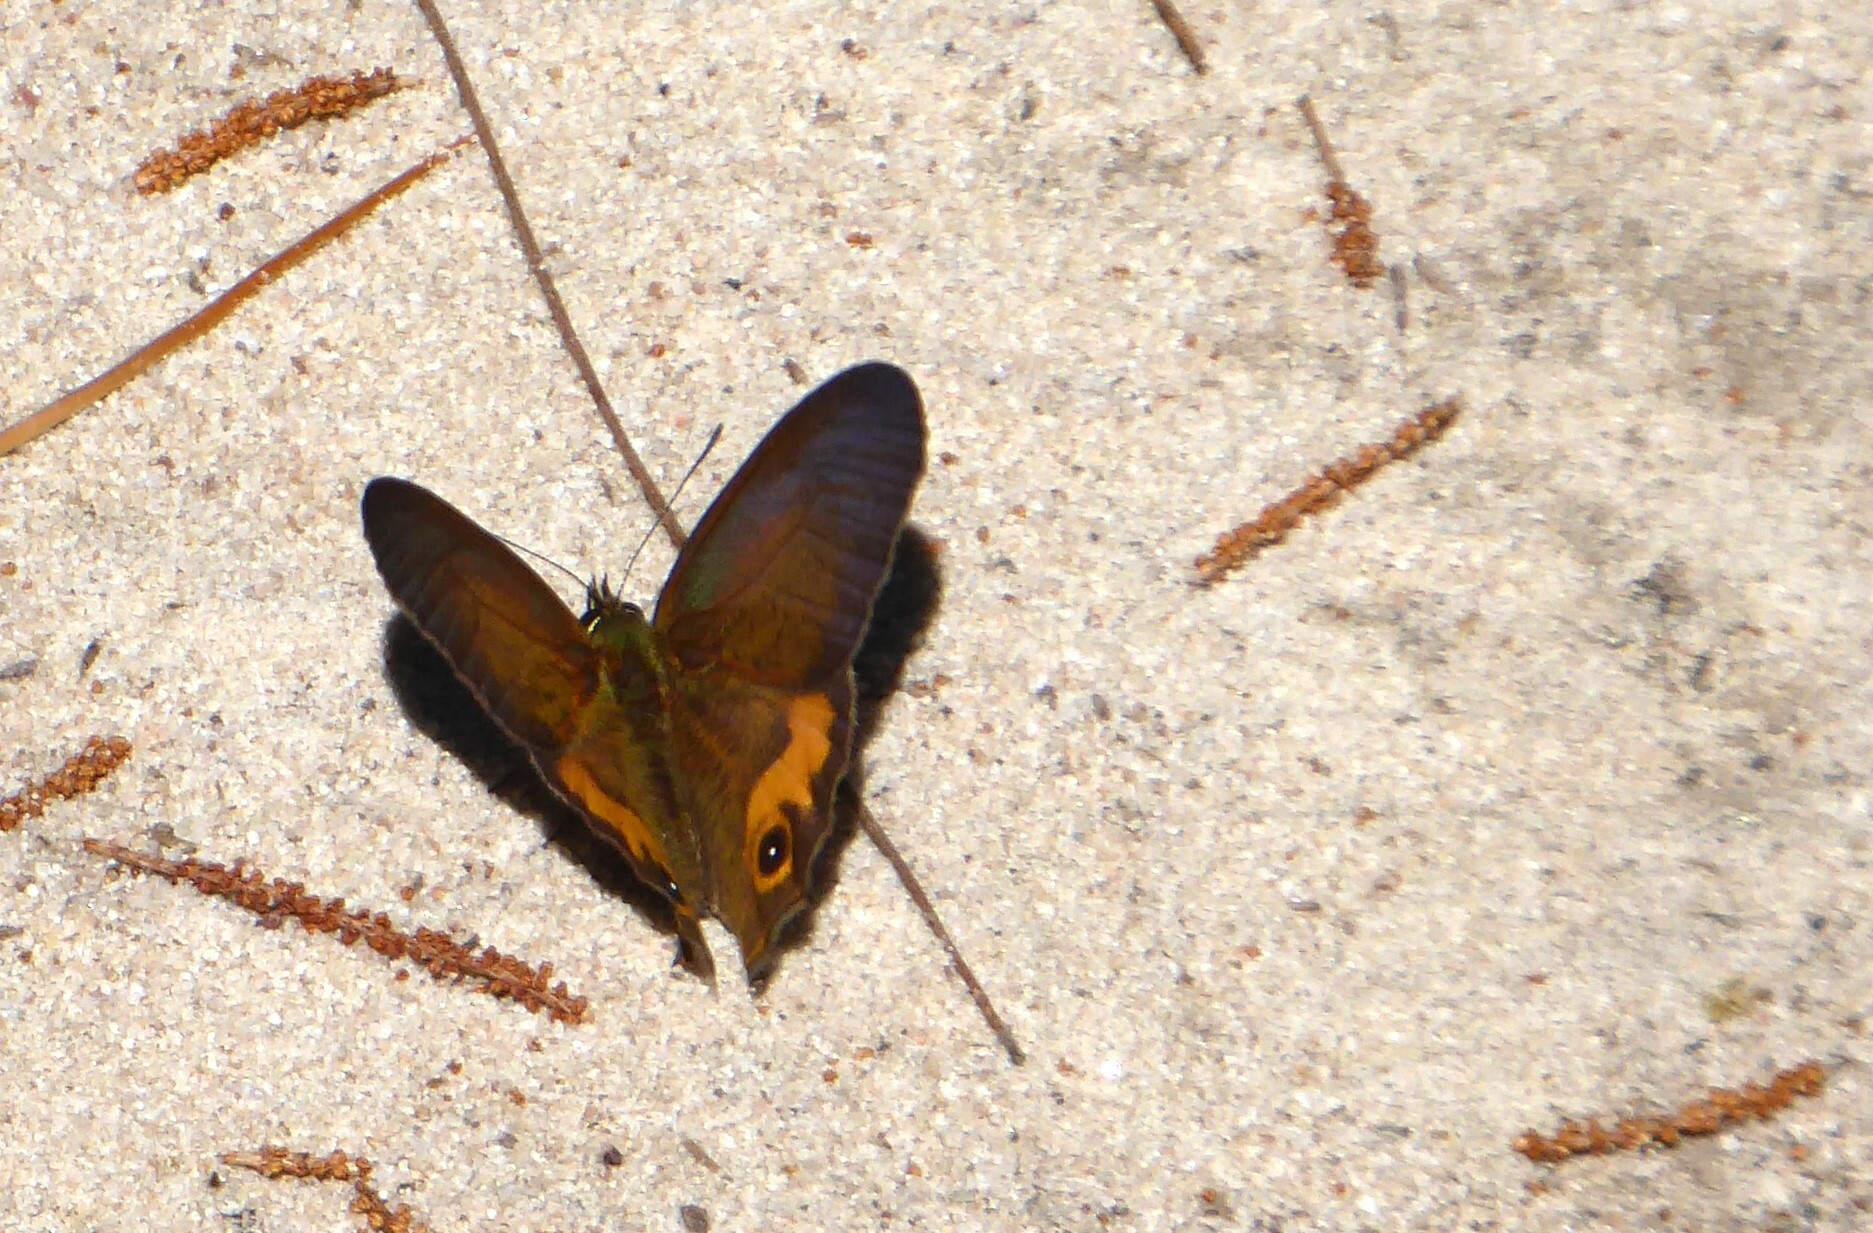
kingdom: Animalia
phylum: Arthropoda
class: Insecta
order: Lepidoptera
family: Nymphalidae
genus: Hypocysta
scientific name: Hypocysta metirius
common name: Brown ringlet
